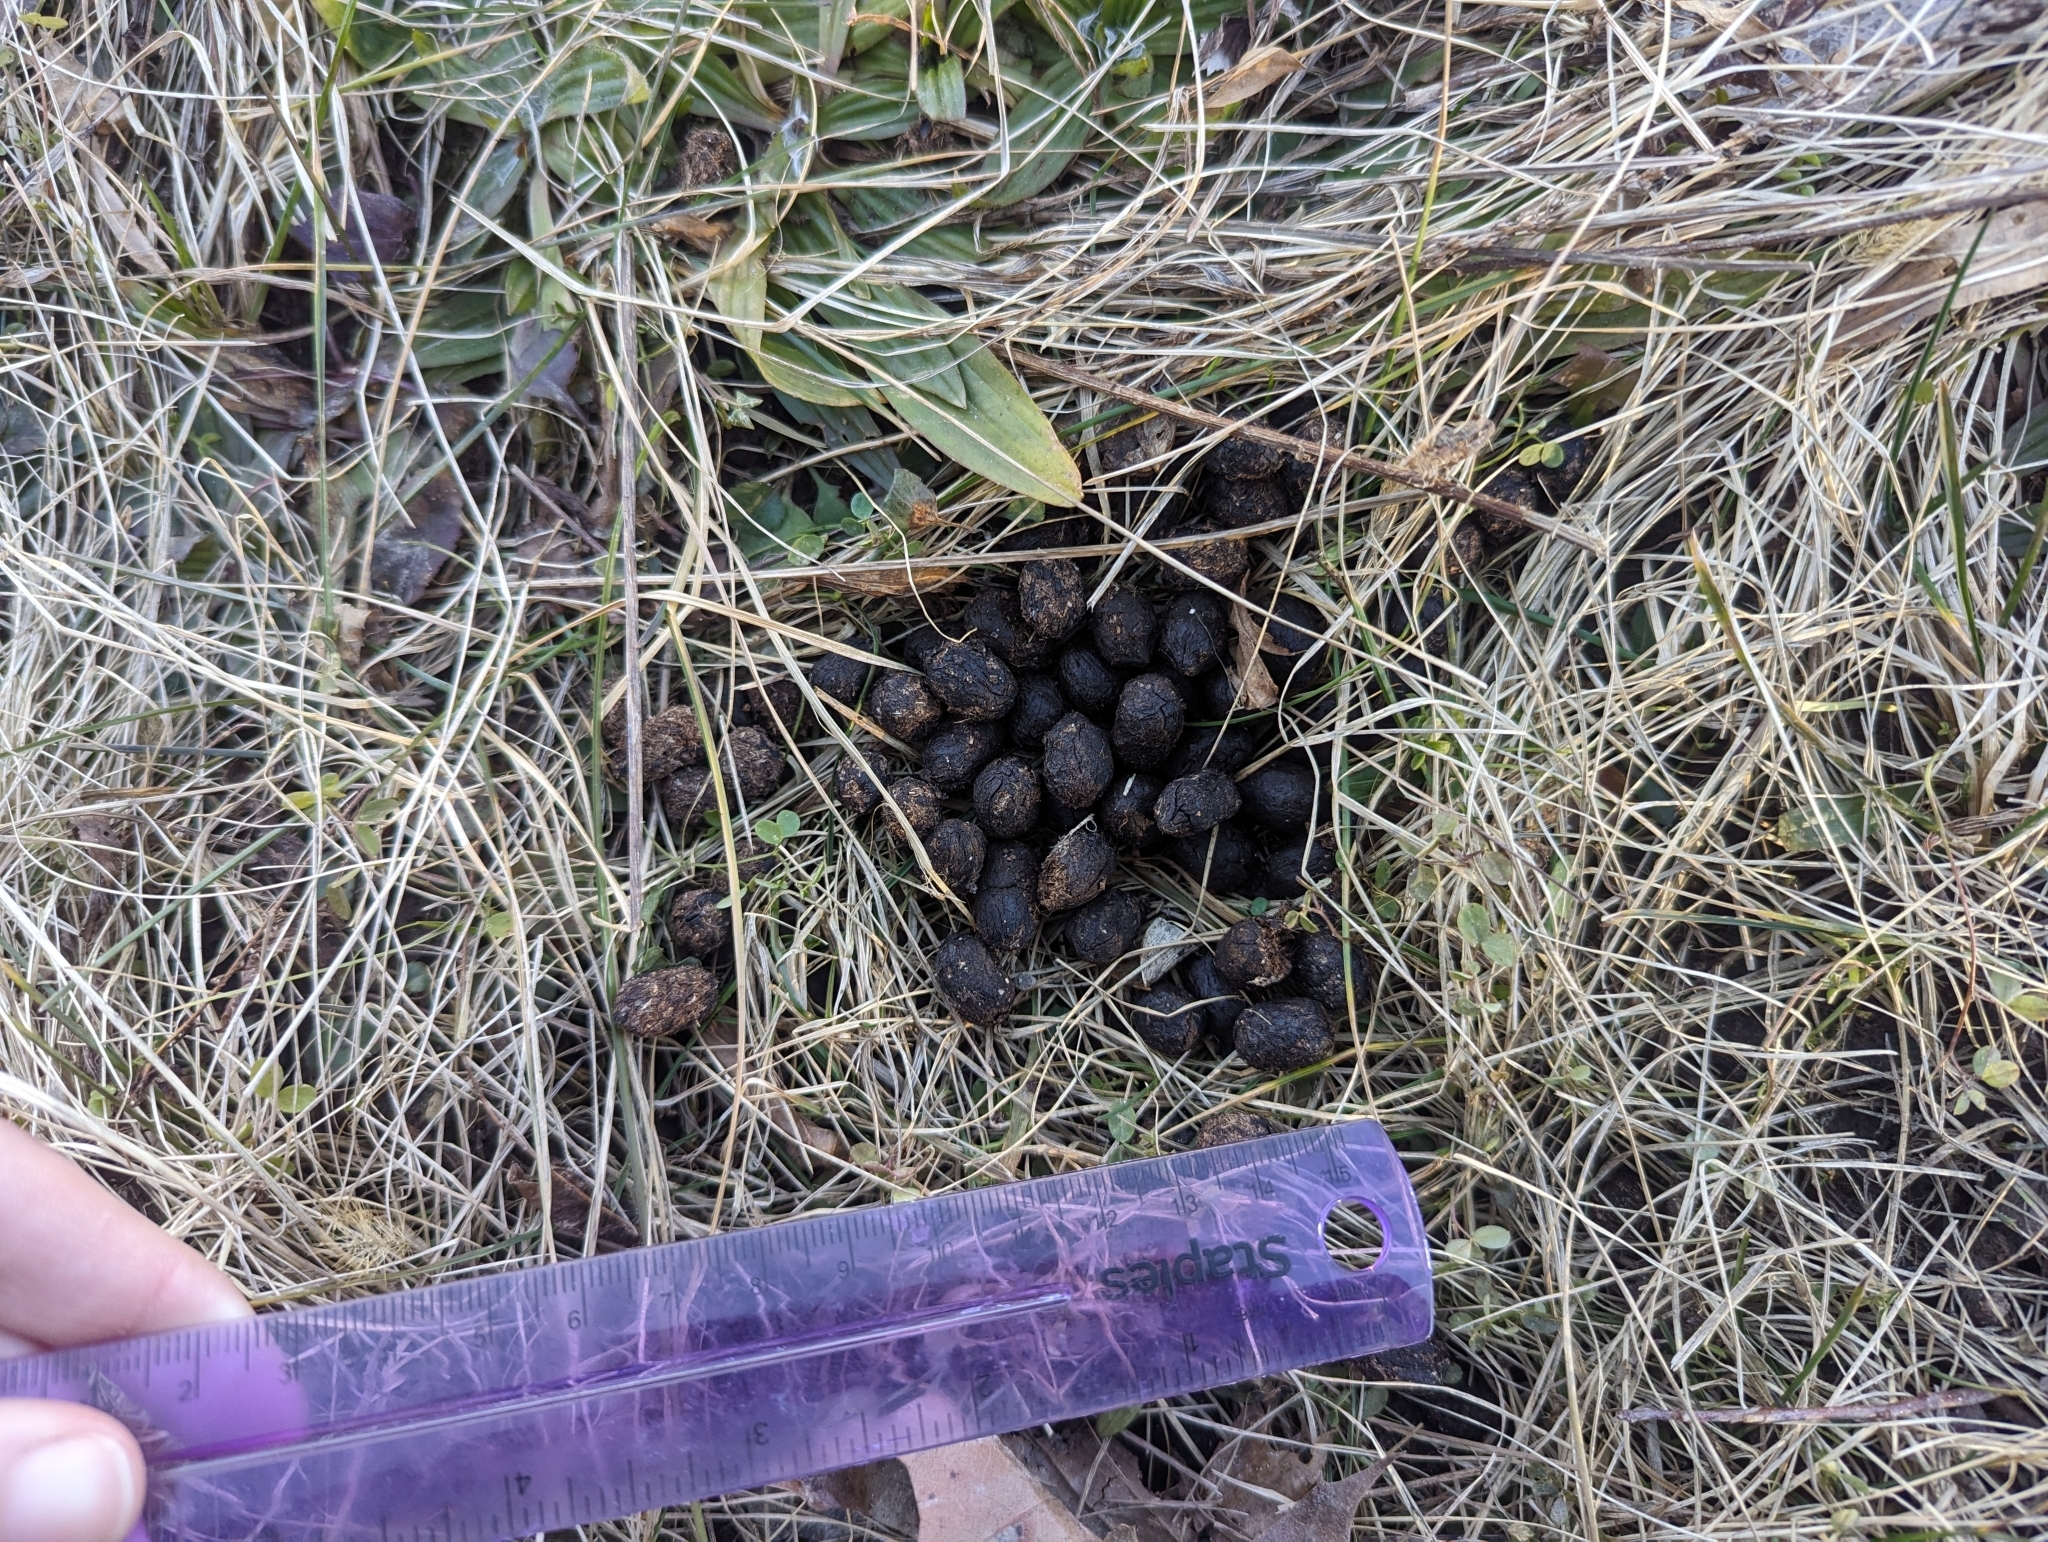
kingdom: Animalia
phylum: Chordata
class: Mammalia
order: Artiodactyla
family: Cervidae
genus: Odocoileus
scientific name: Odocoileus virginianus
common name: White-tailed deer
